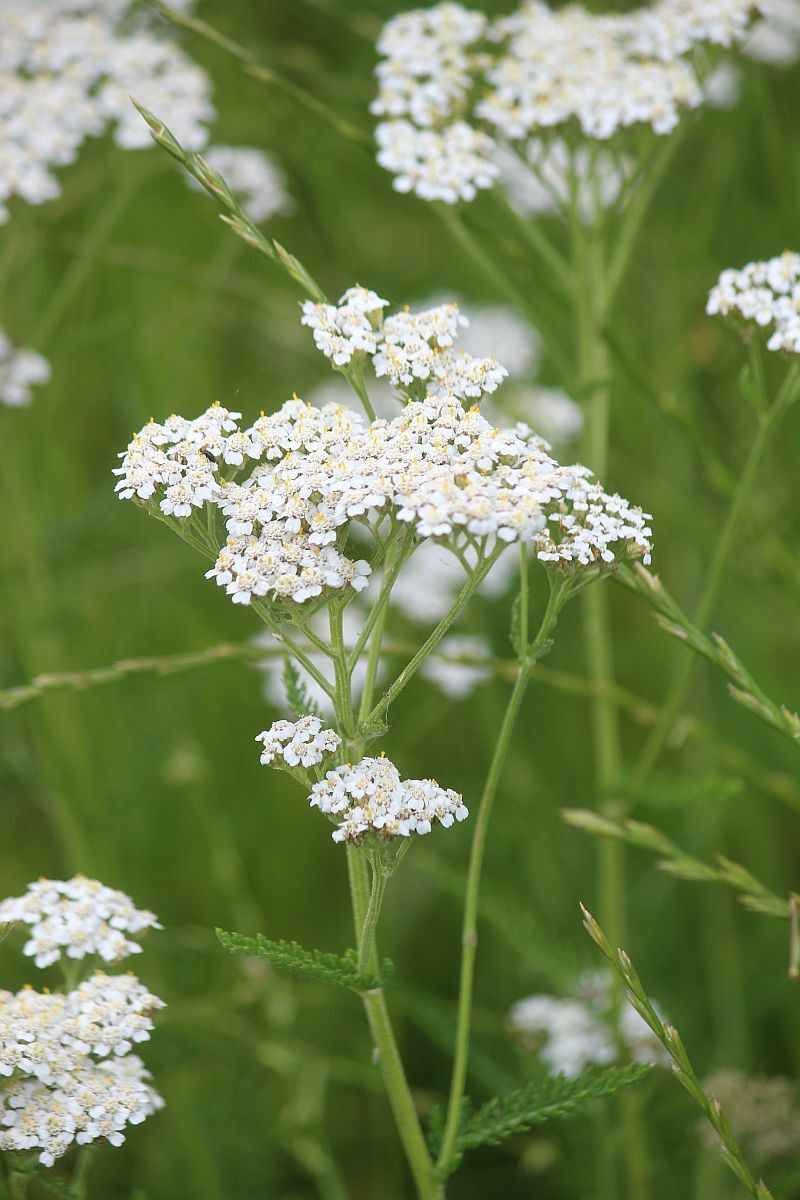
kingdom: Plantae
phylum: Tracheophyta
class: Magnoliopsida
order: Asterales
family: Asteraceae
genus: Achillea
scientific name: Achillea millefolium
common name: Yarrow
